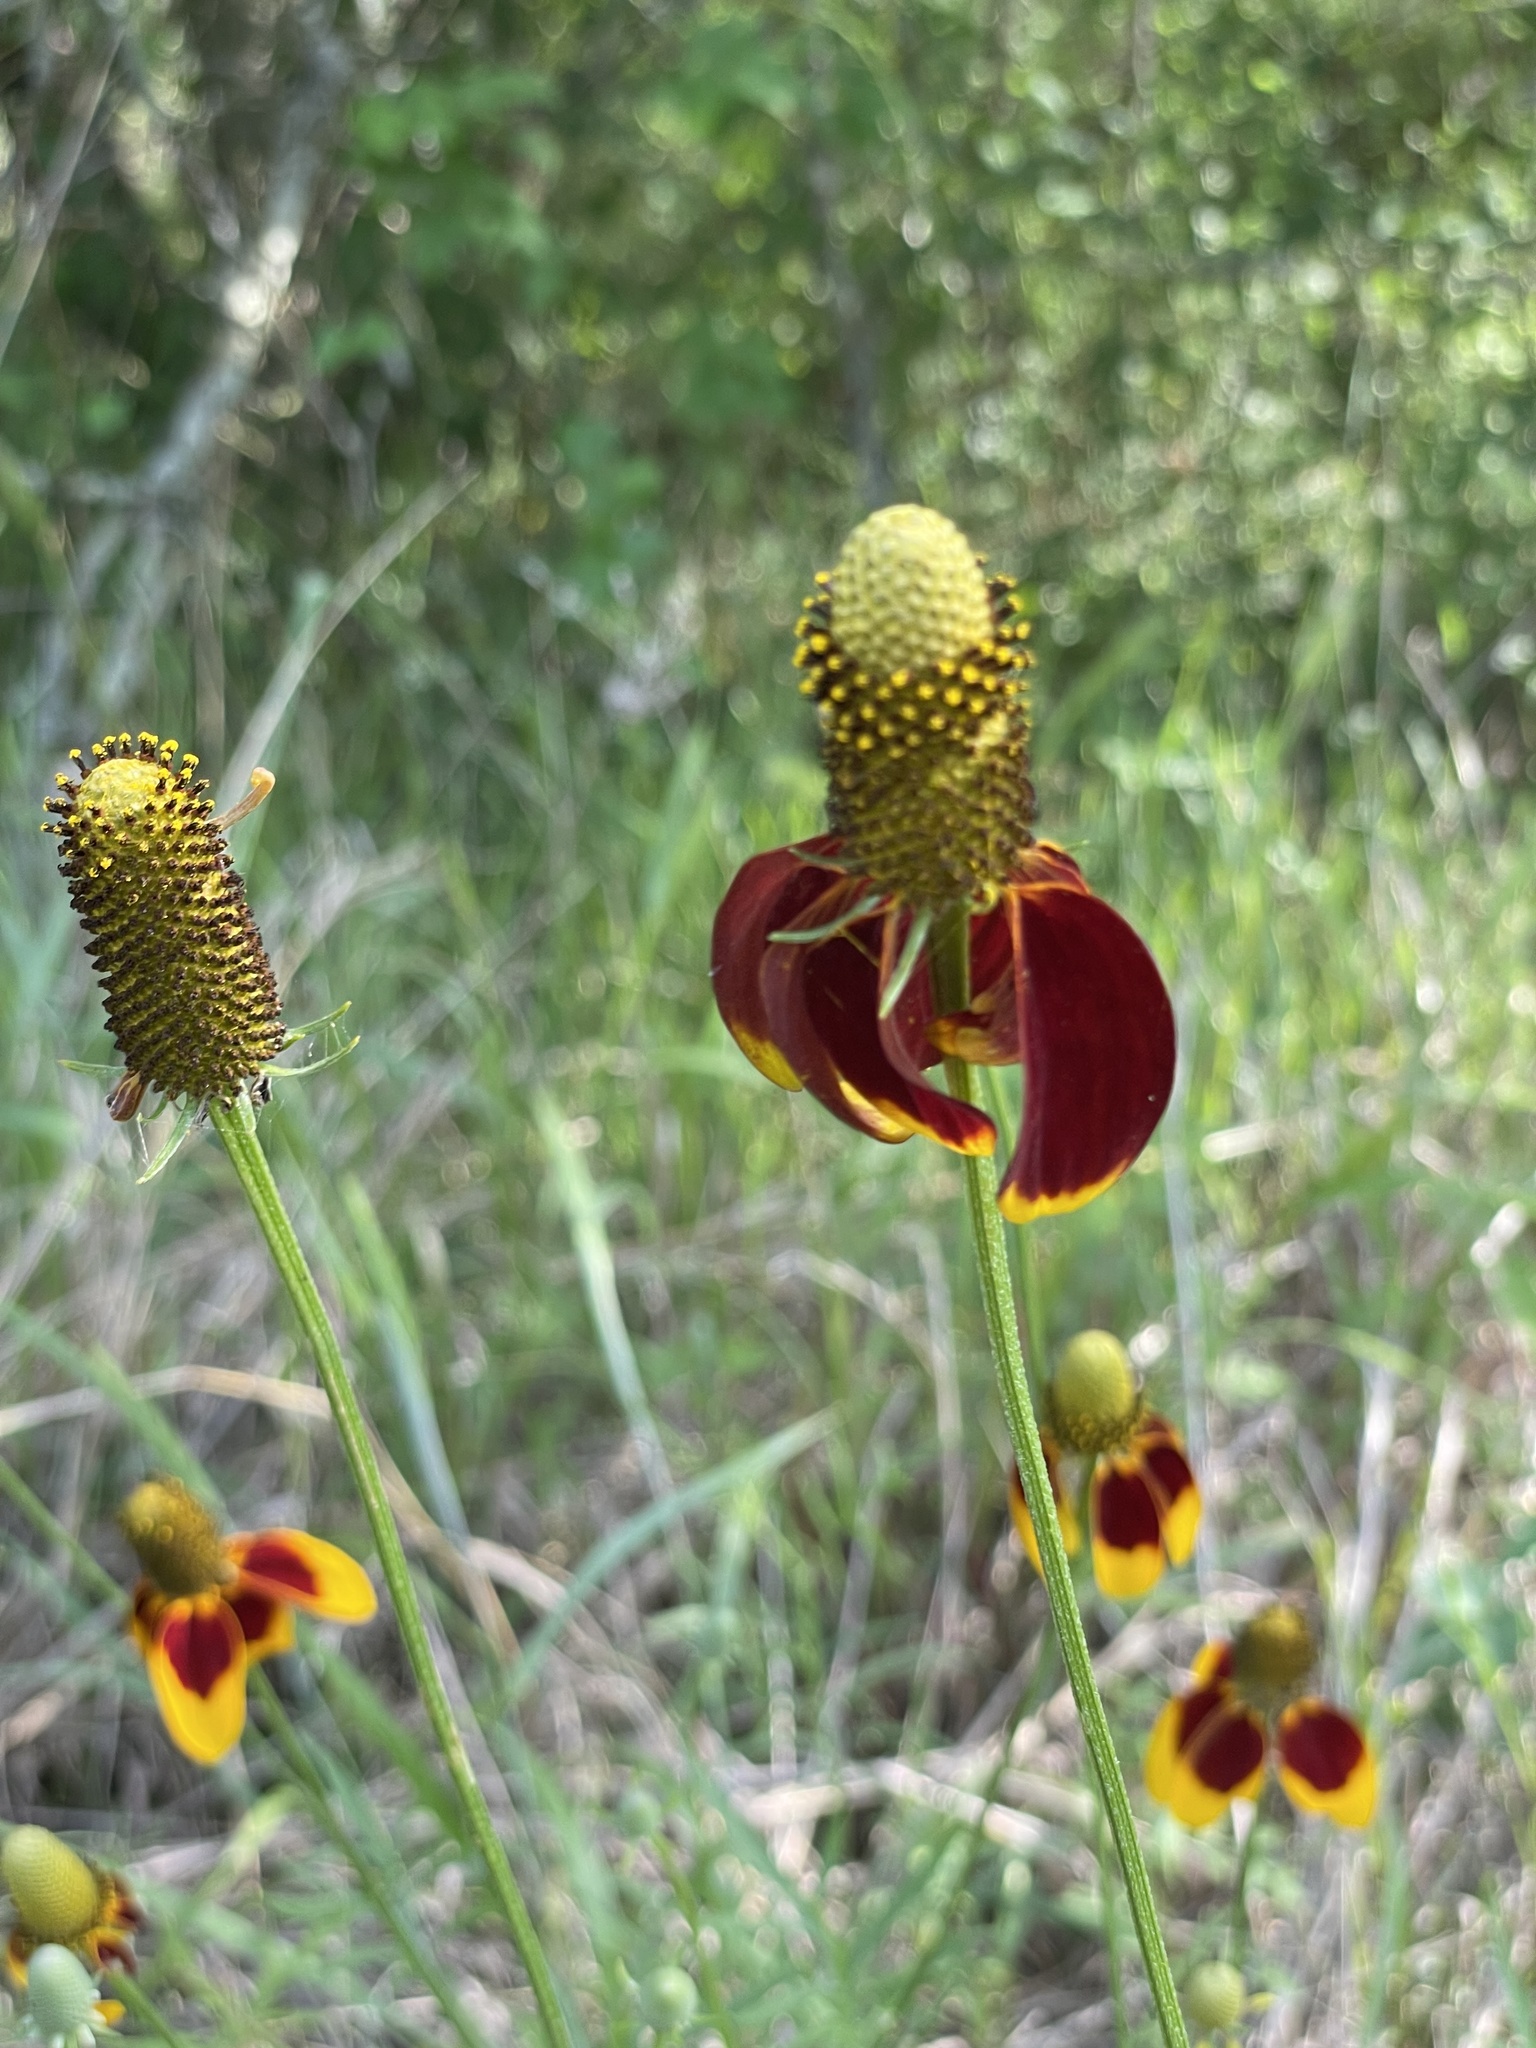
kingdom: Plantae
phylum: Tracheophyta
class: Magnoliopsida
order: Asterales
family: Asteraceae
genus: Ratibida
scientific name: Ratibida columnifera
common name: Prairie coneflower
